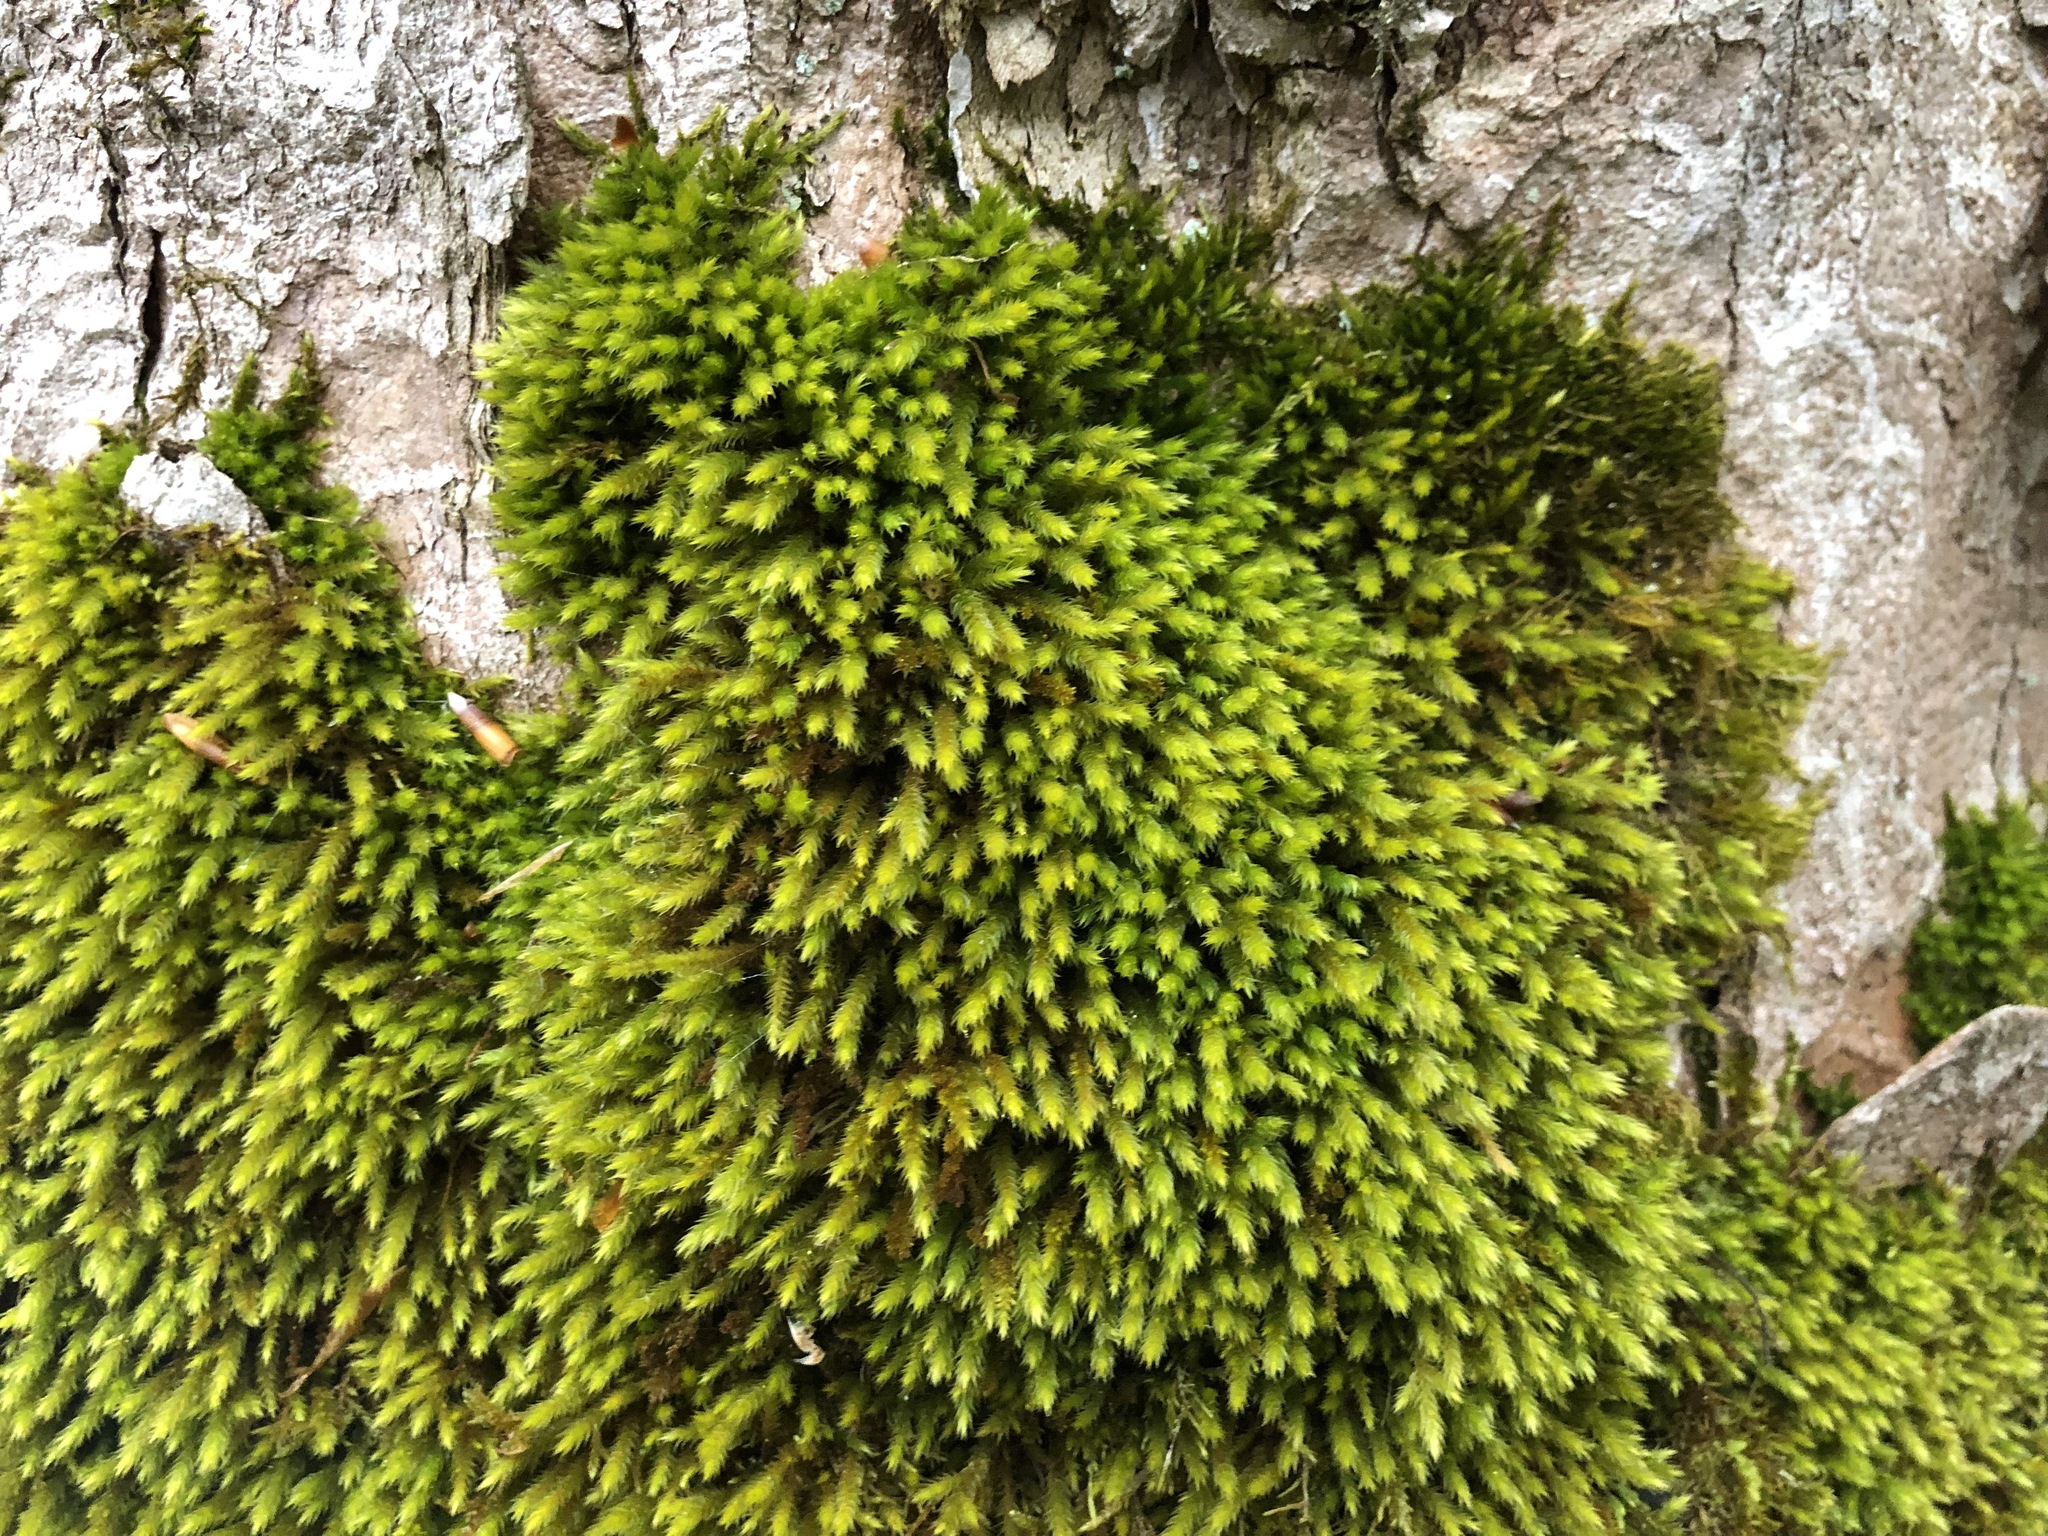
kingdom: Plantae
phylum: Bryophyta
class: Bryopsida
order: Hypnales
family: Leucodontaceae
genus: Leucodon
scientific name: Leucodon sciuroides
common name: Squirrel-tail moss
